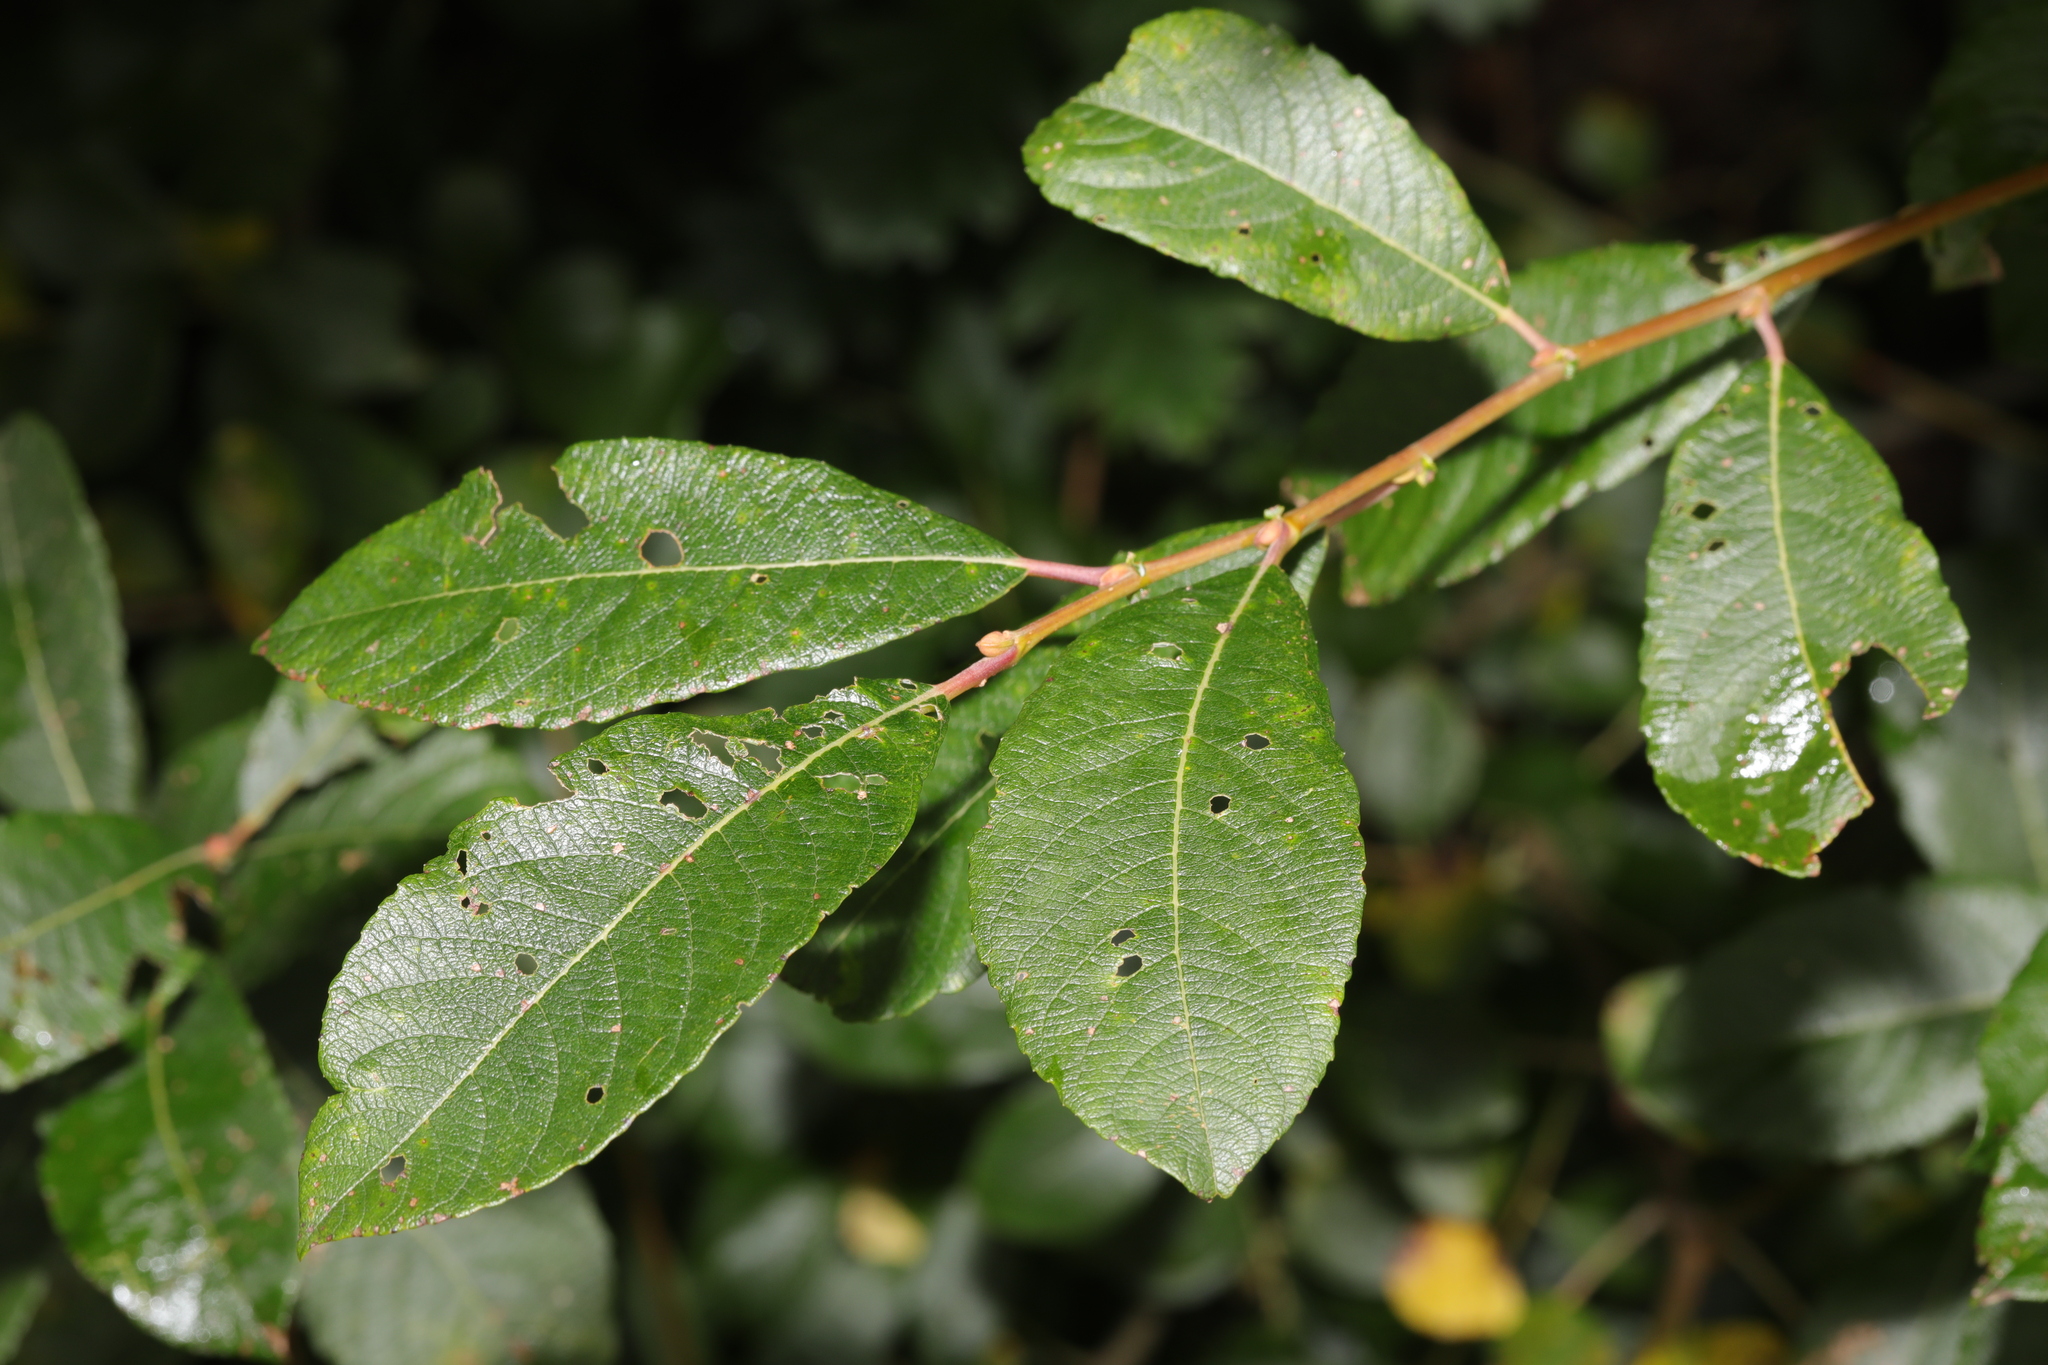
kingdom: Plantae
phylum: Tracheophyta
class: Magnoliopsida
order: Malpighiales
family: Salicaceae
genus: Salix
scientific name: Salix atrocinerea
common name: Rusty willow
